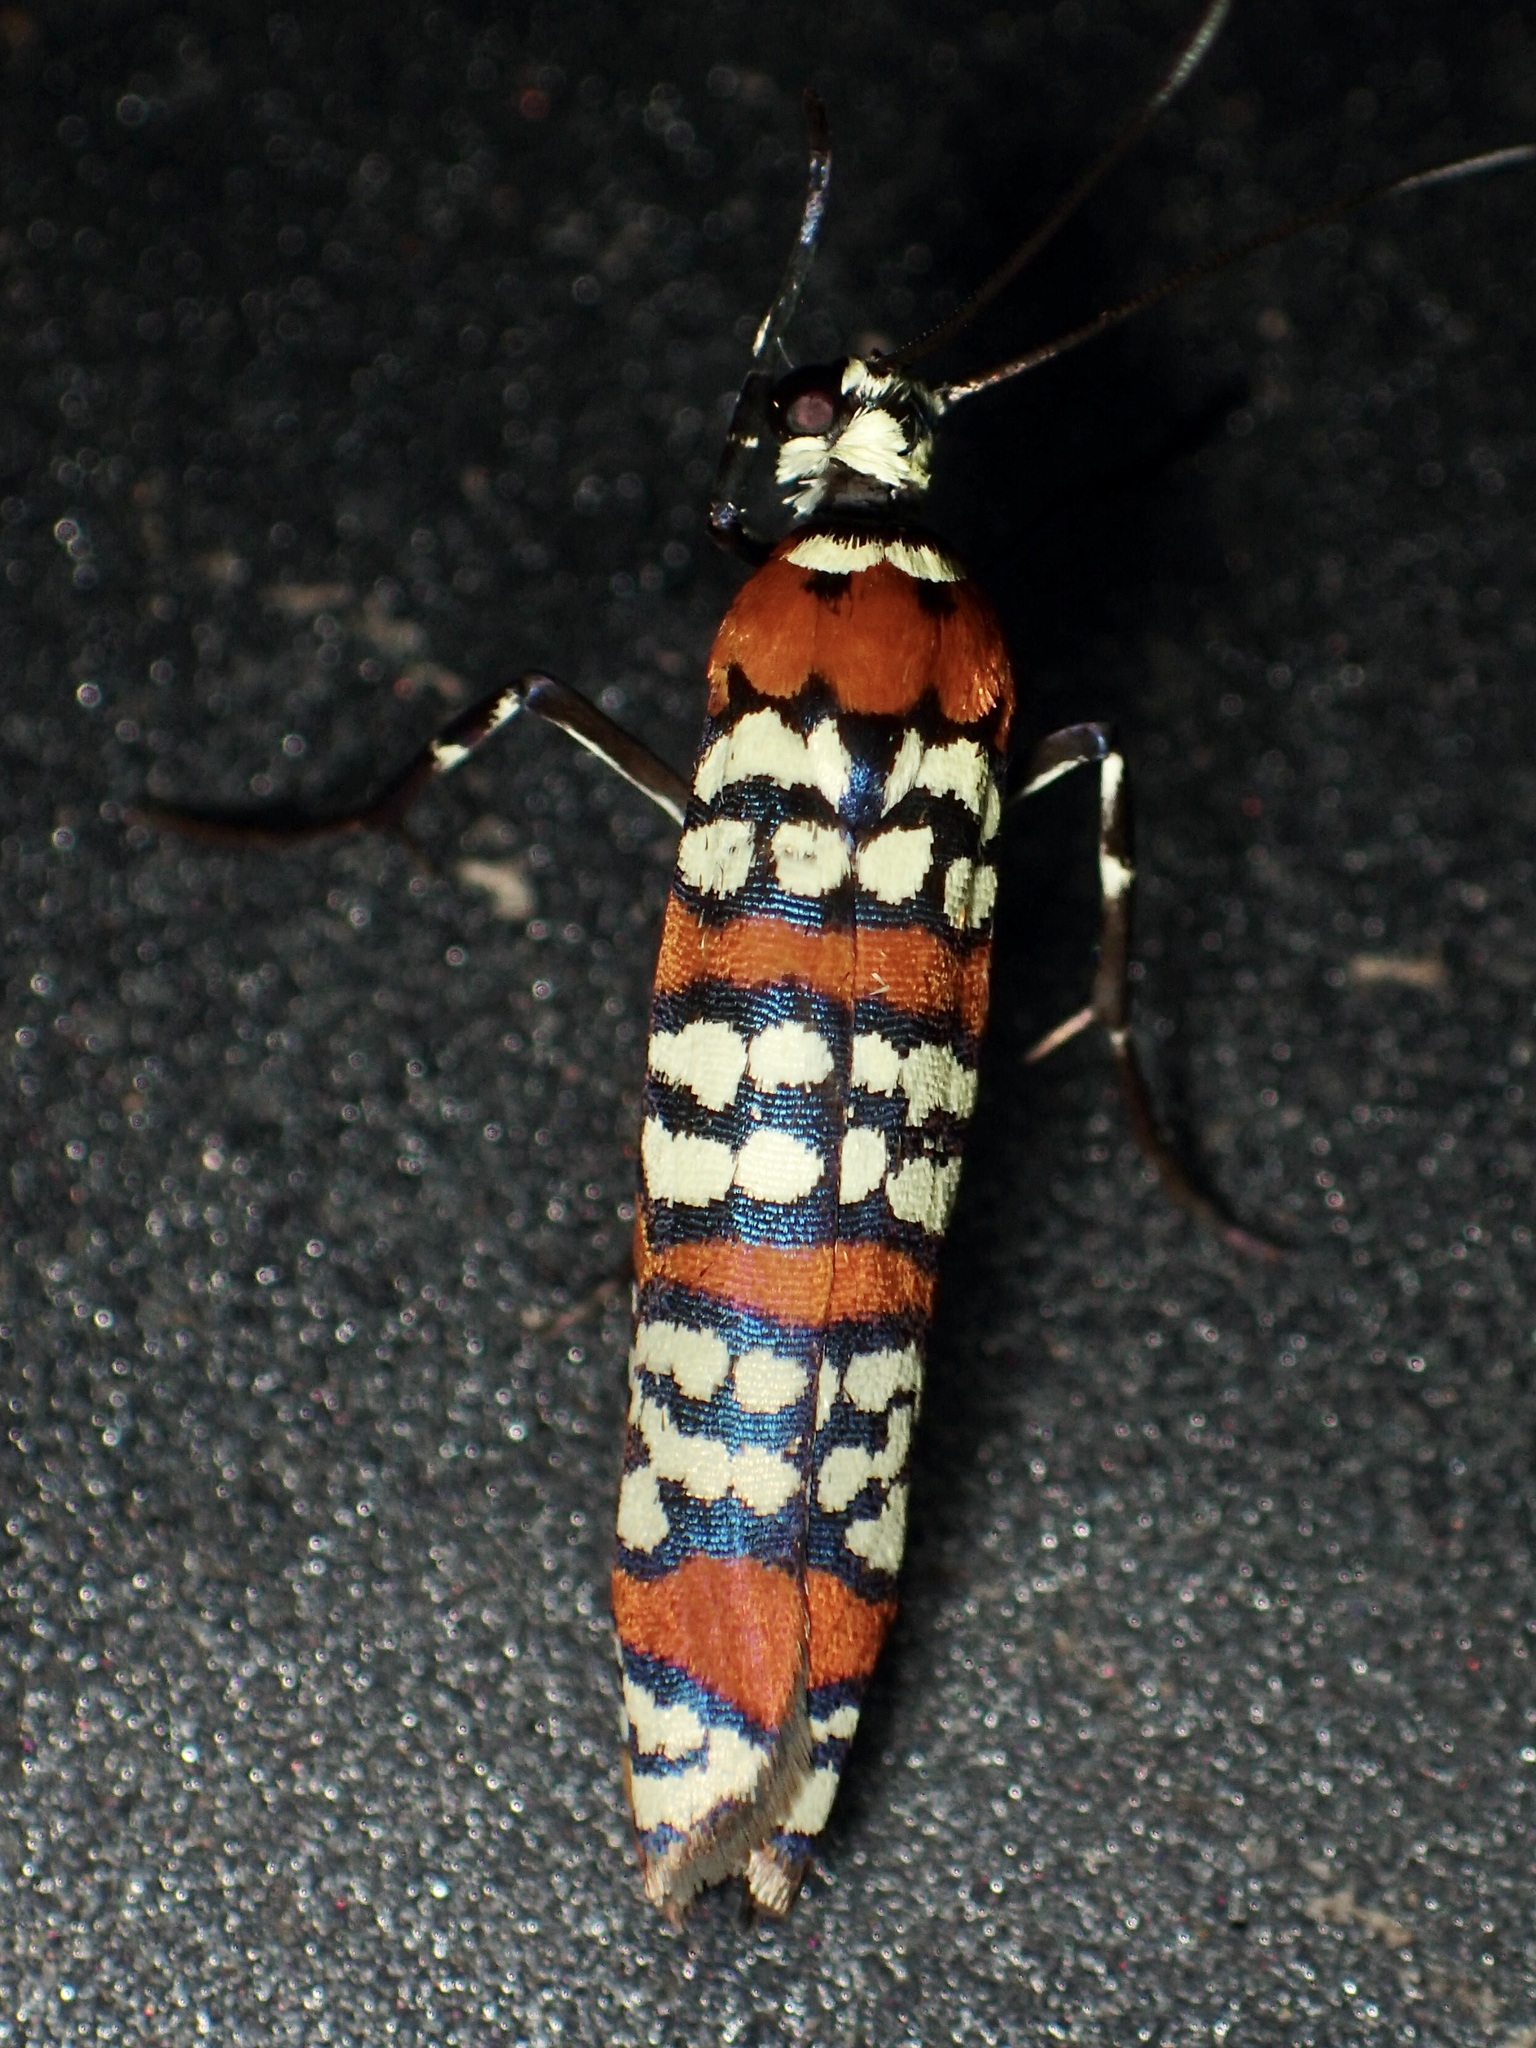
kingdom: Animalia
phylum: Arthropoda
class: Insecta
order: Lepidoptera
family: Attevidae
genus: Atteva
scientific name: Atteva punctella
